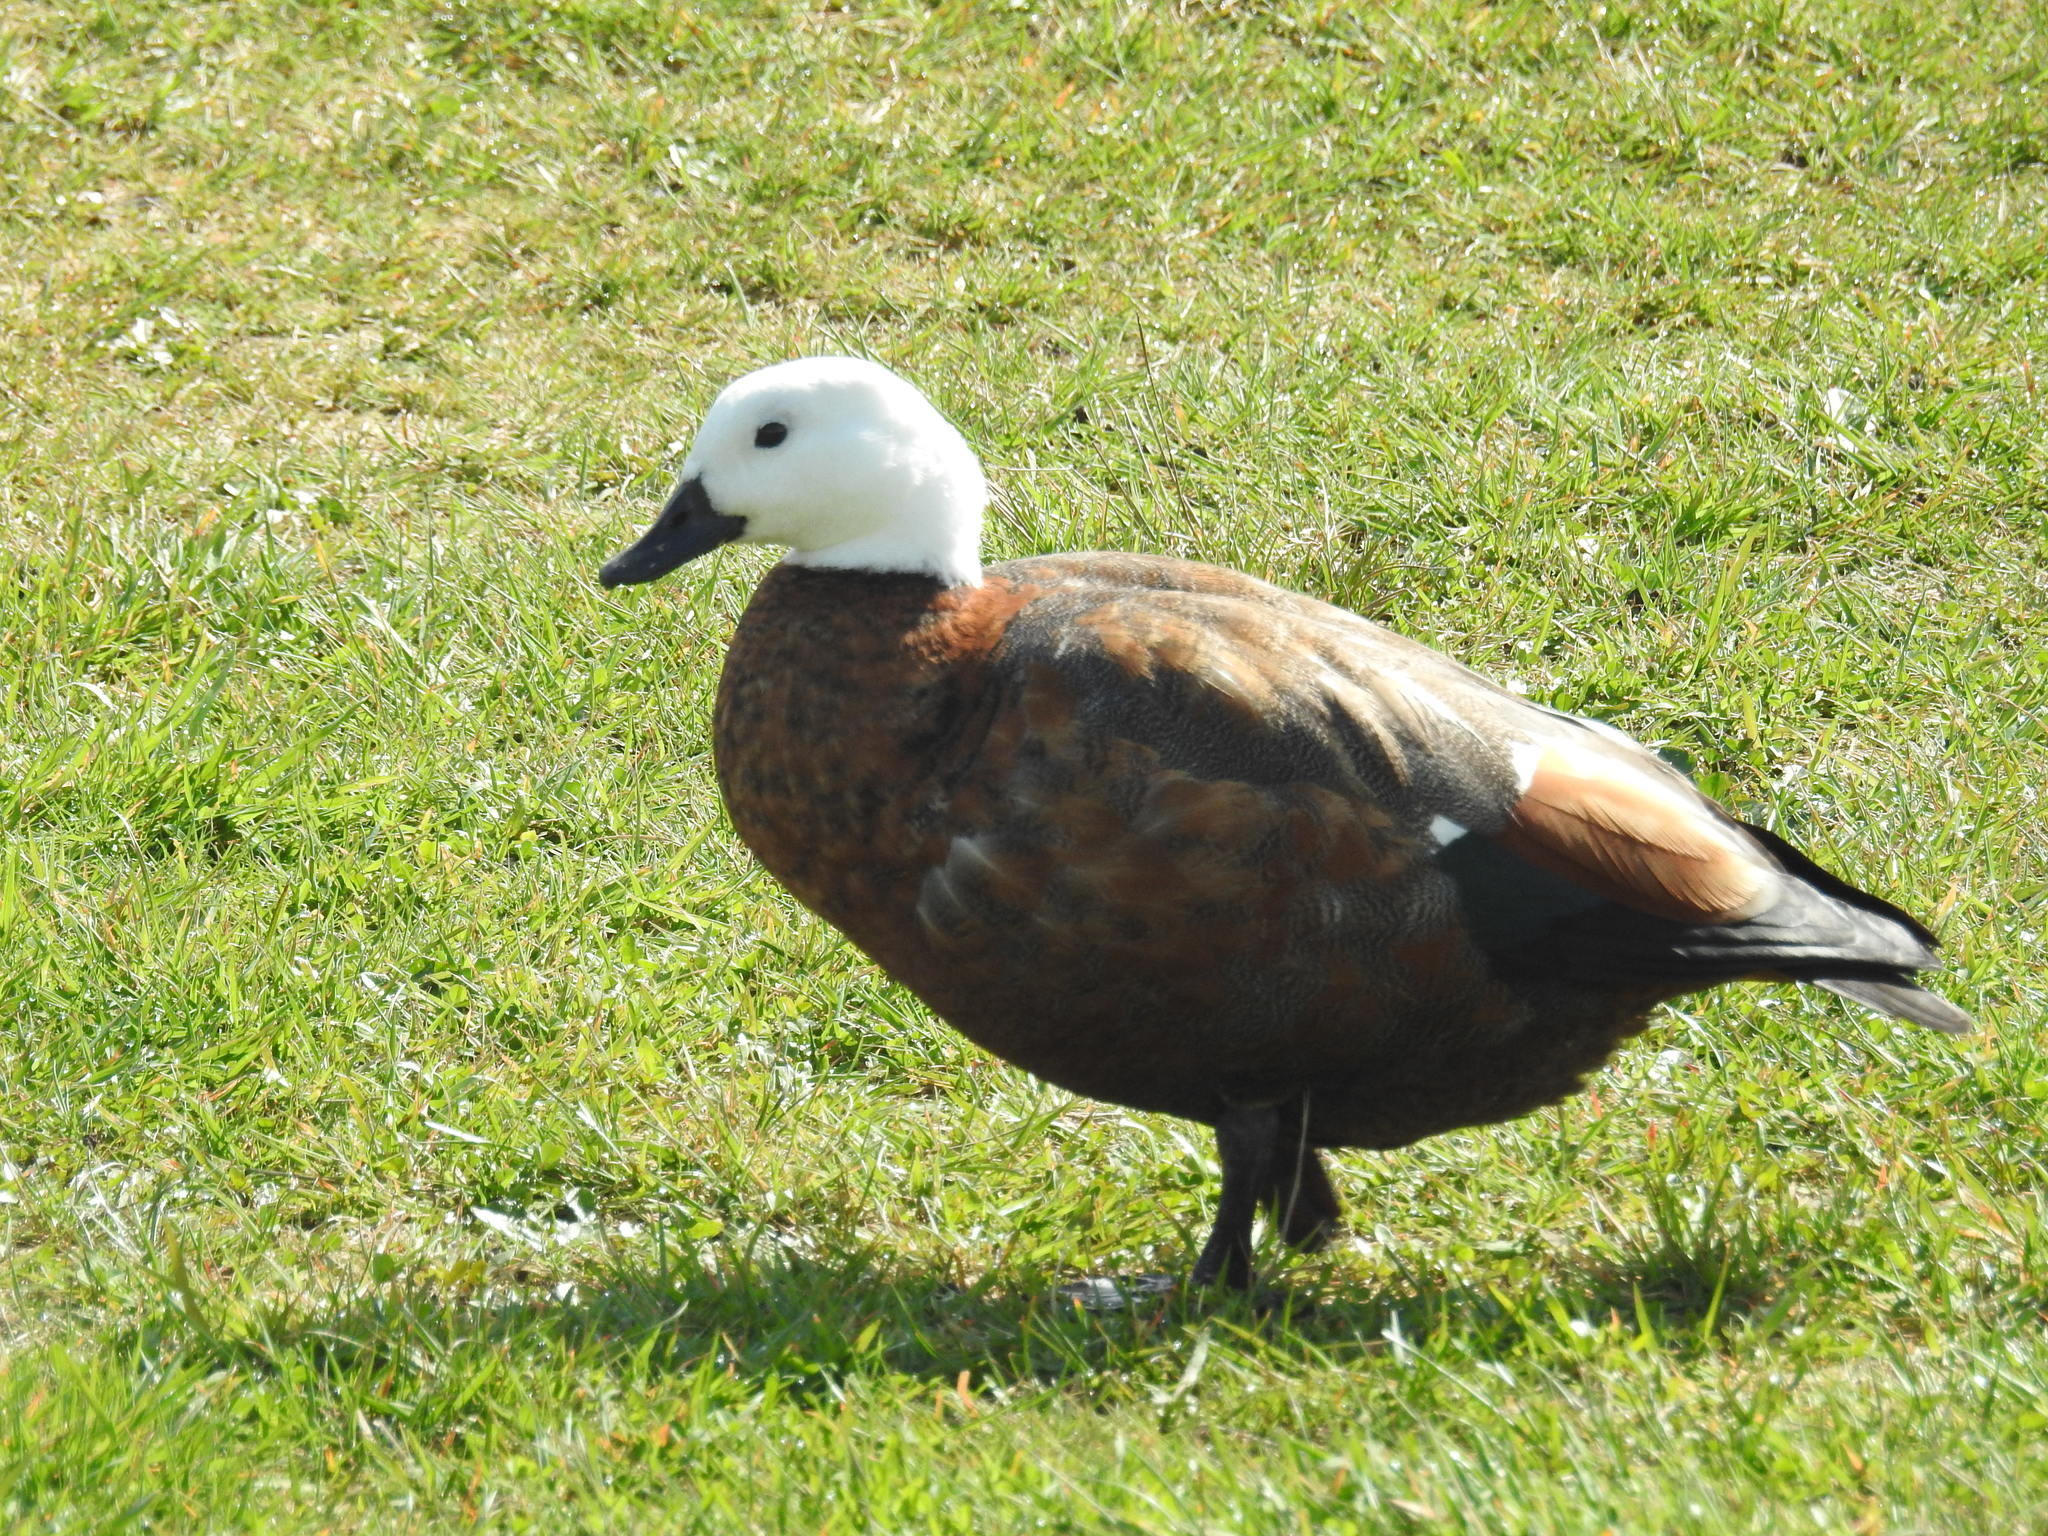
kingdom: Animalia
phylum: Chordata
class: Aves
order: Anseriformes
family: Anatidae
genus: Tadorna
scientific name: Tadorna variegata
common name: Paradise shelduck
